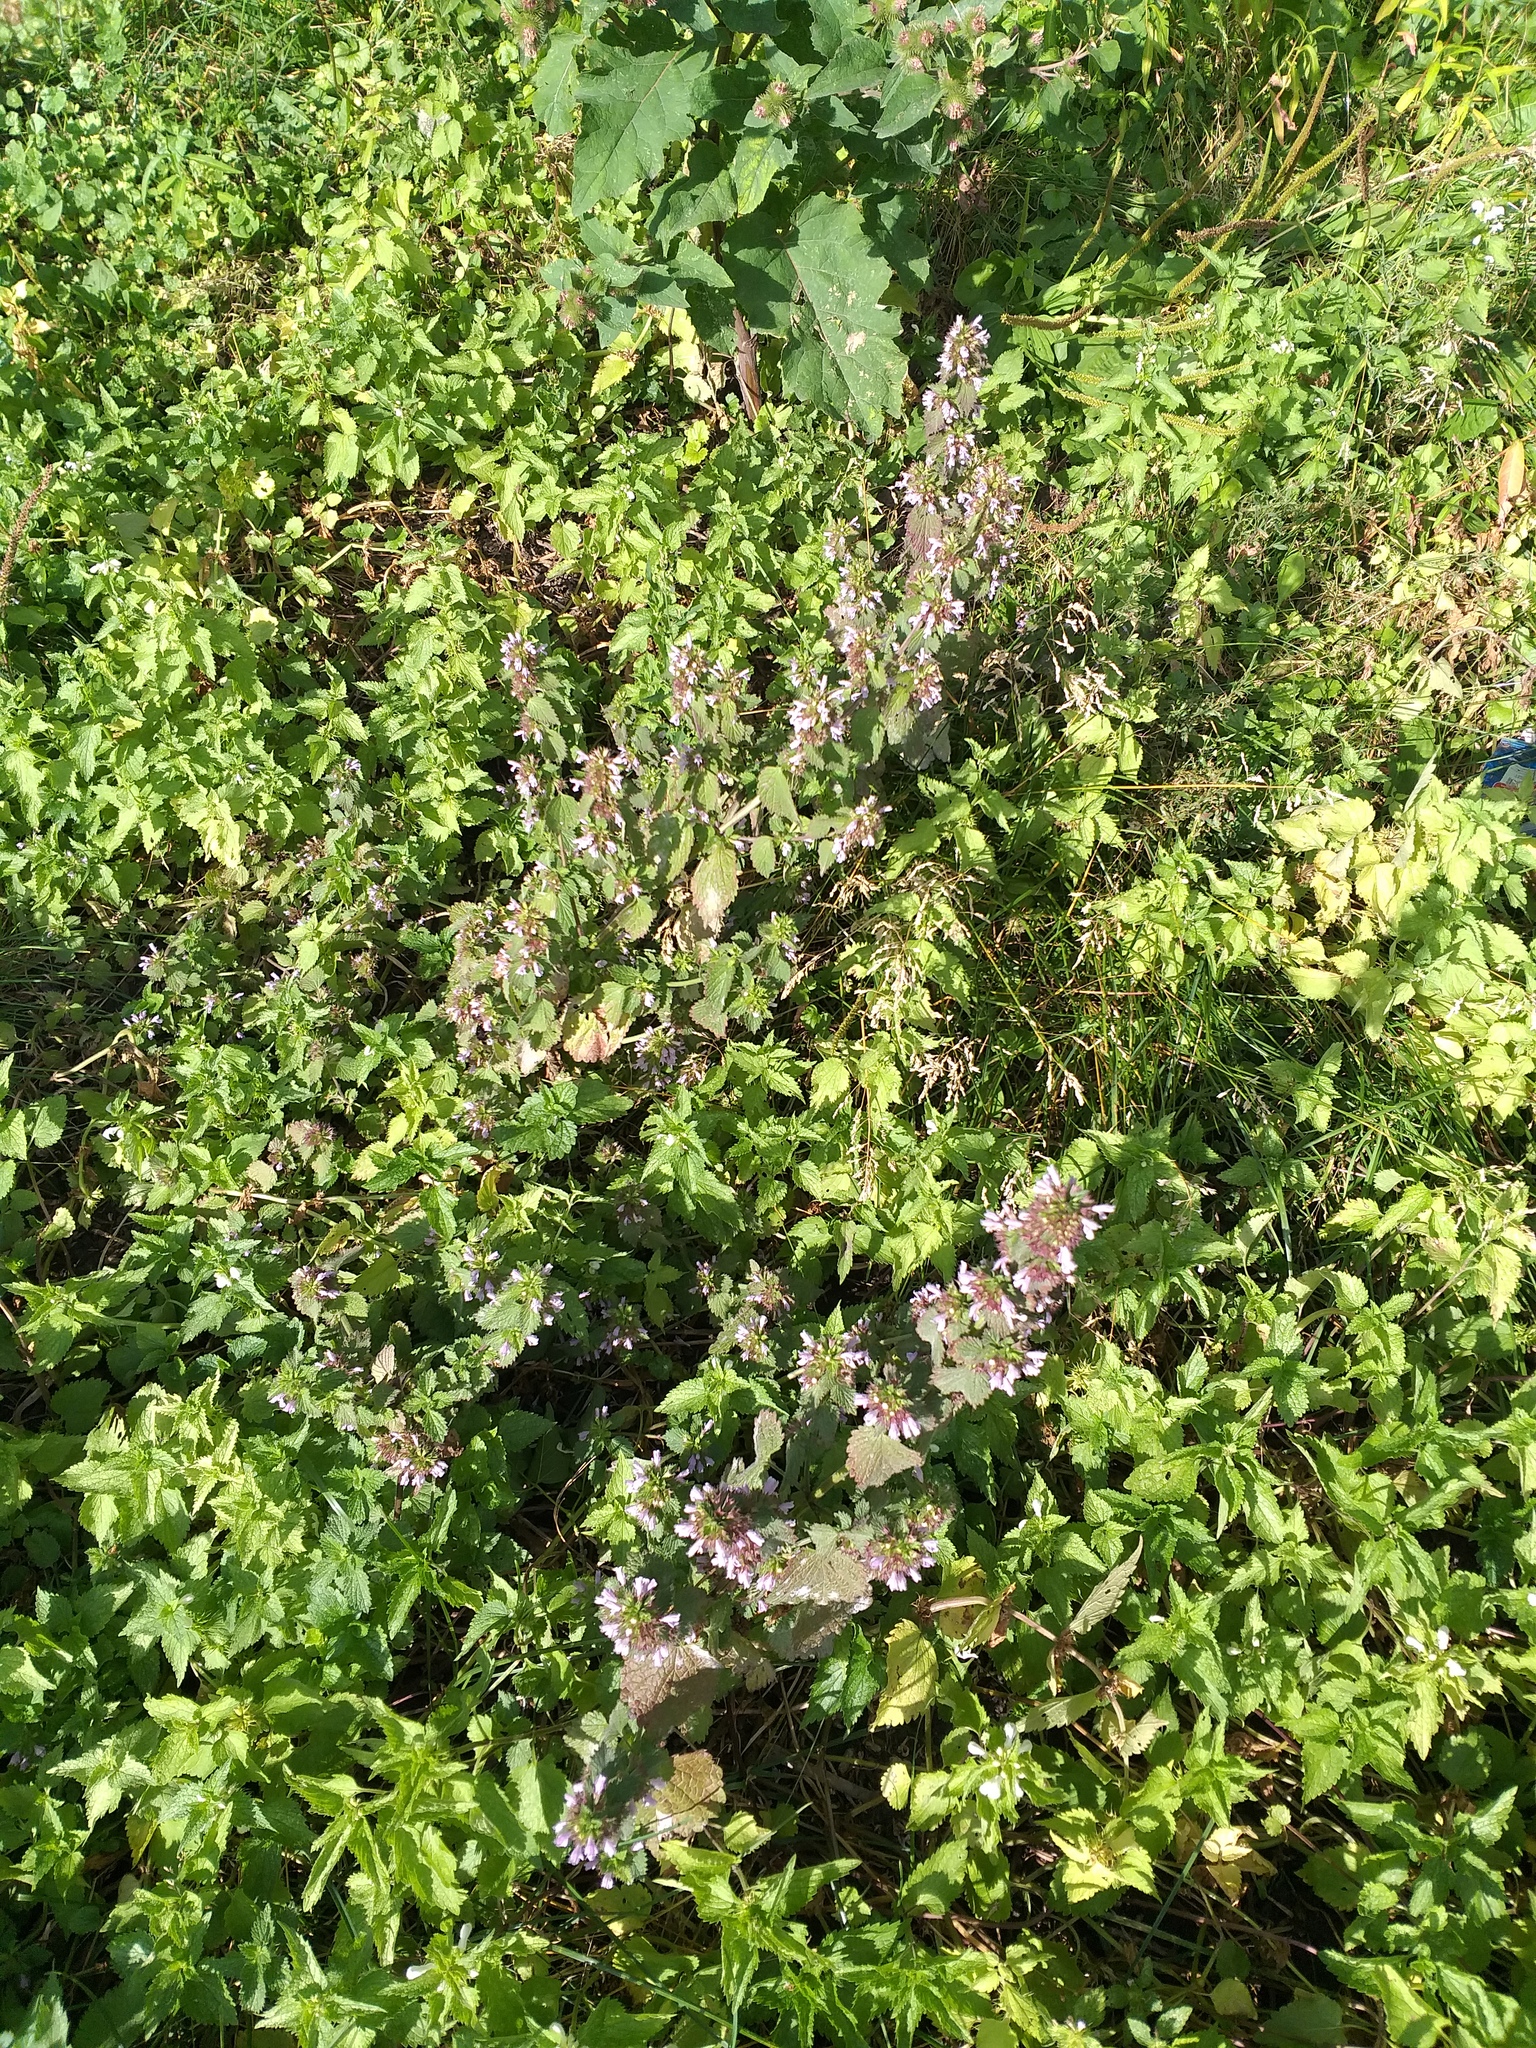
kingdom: Plantae
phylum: Tracheophyta
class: Magnoliopsida
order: Lamiales
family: Lamiaceae
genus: Ballota
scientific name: Ballota nigra
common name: Black horehound
